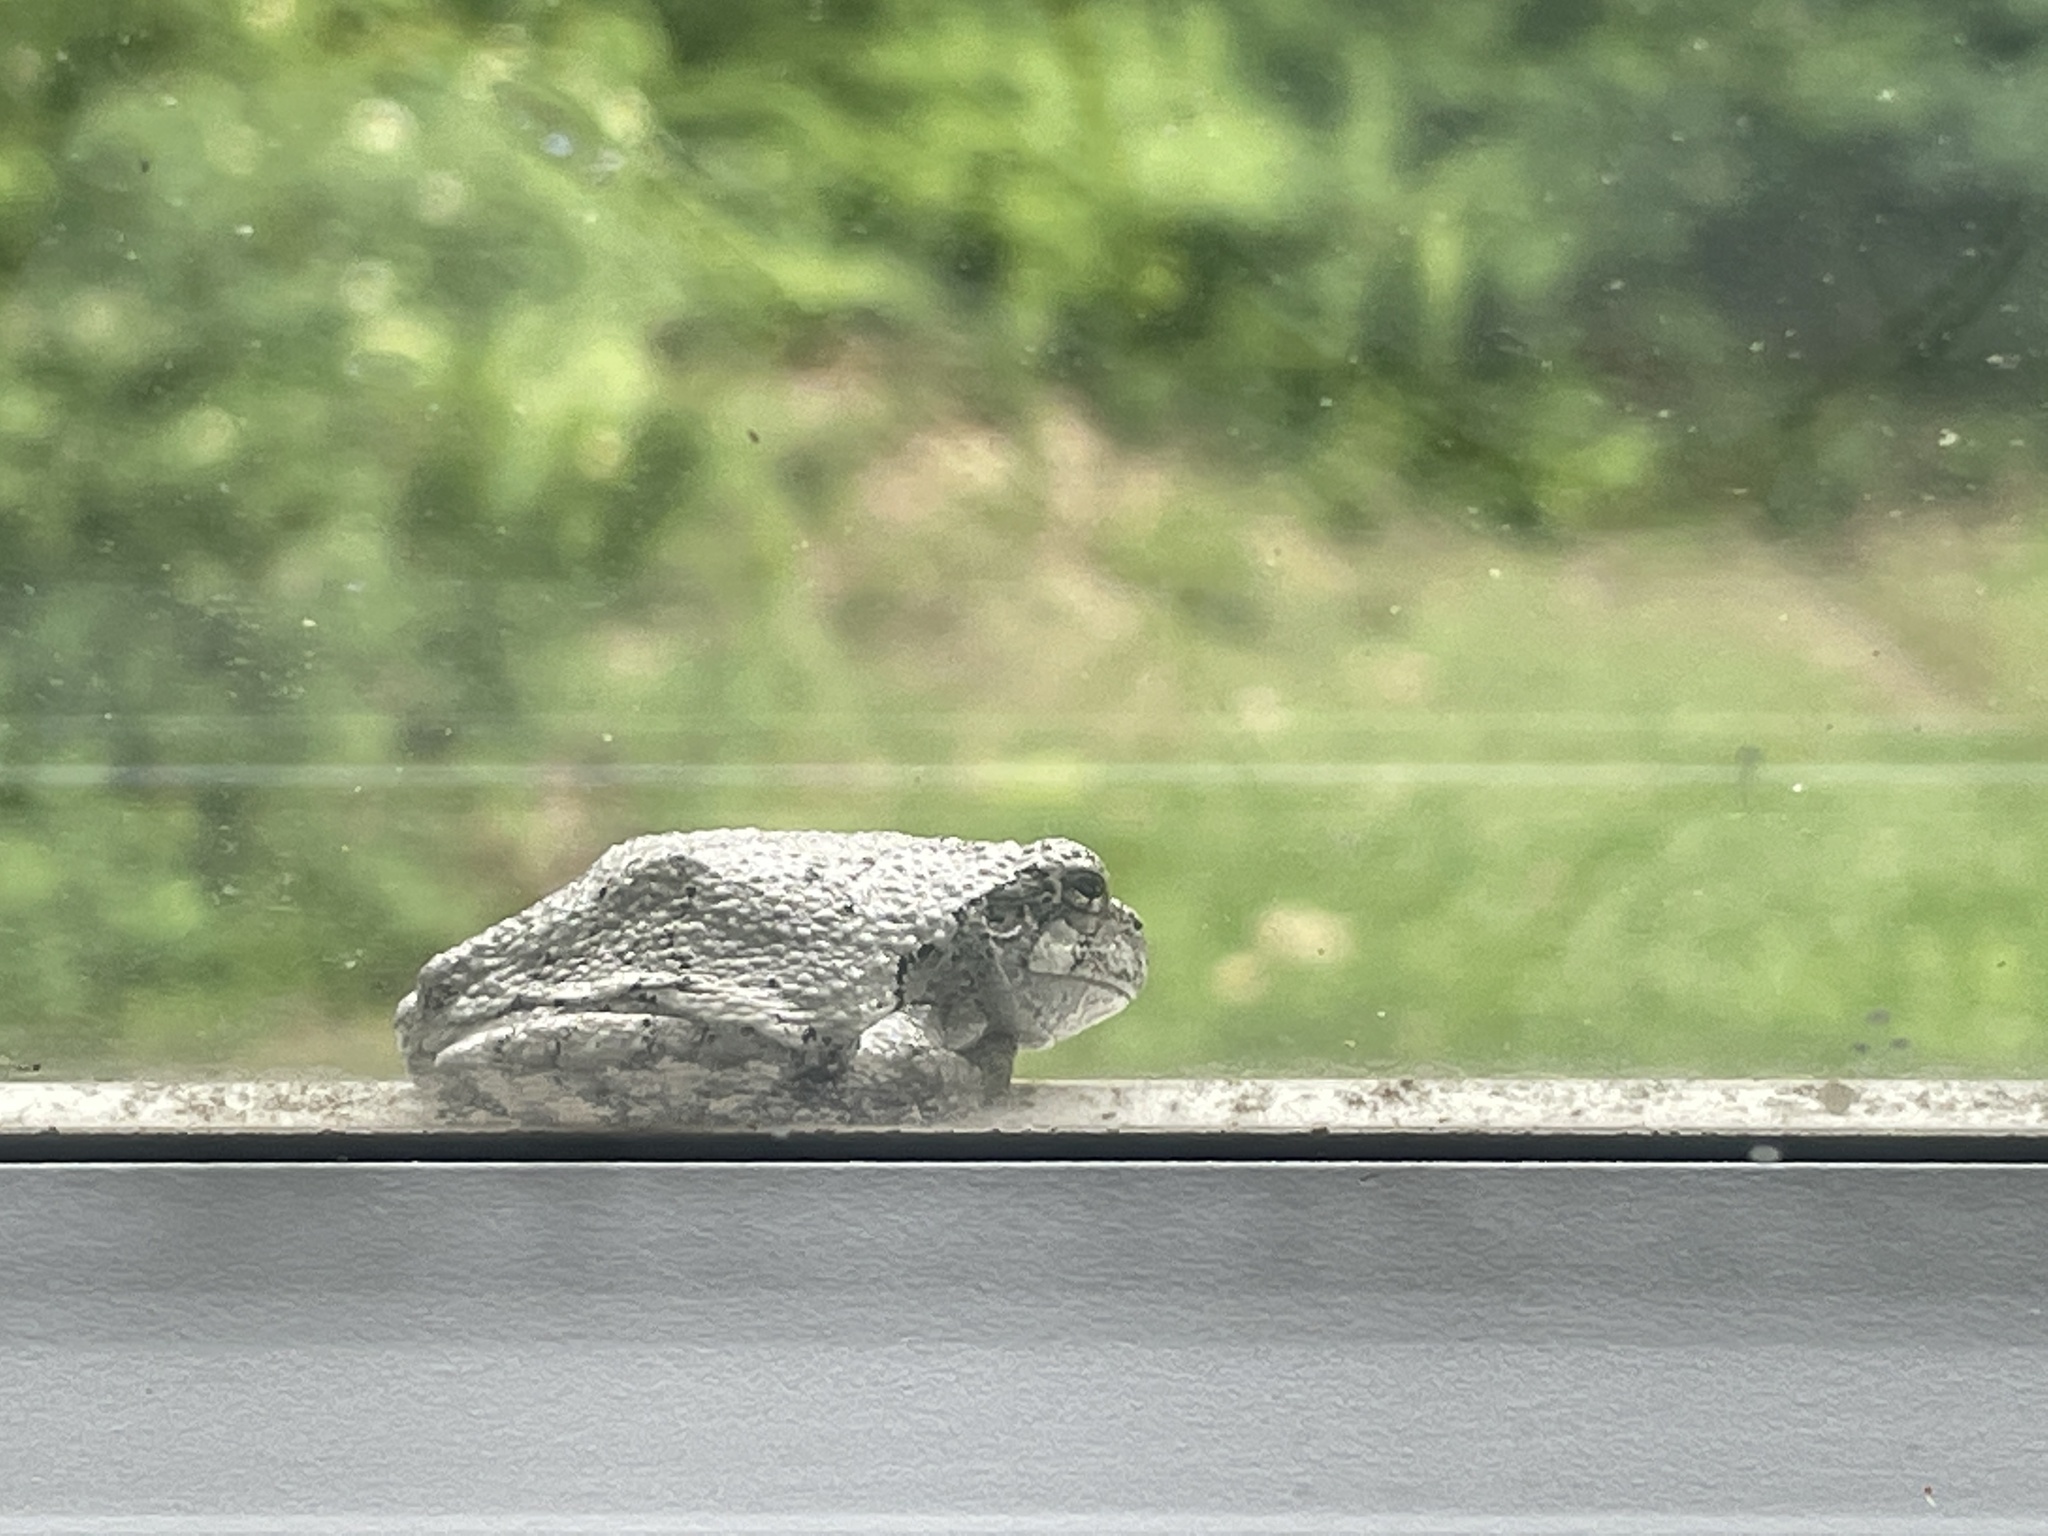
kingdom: Animalia
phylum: Chordata
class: Amphibia
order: Anura
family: Hylidae
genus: Dryophytes
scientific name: Dryophytes versicolor
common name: Gray treefrog
